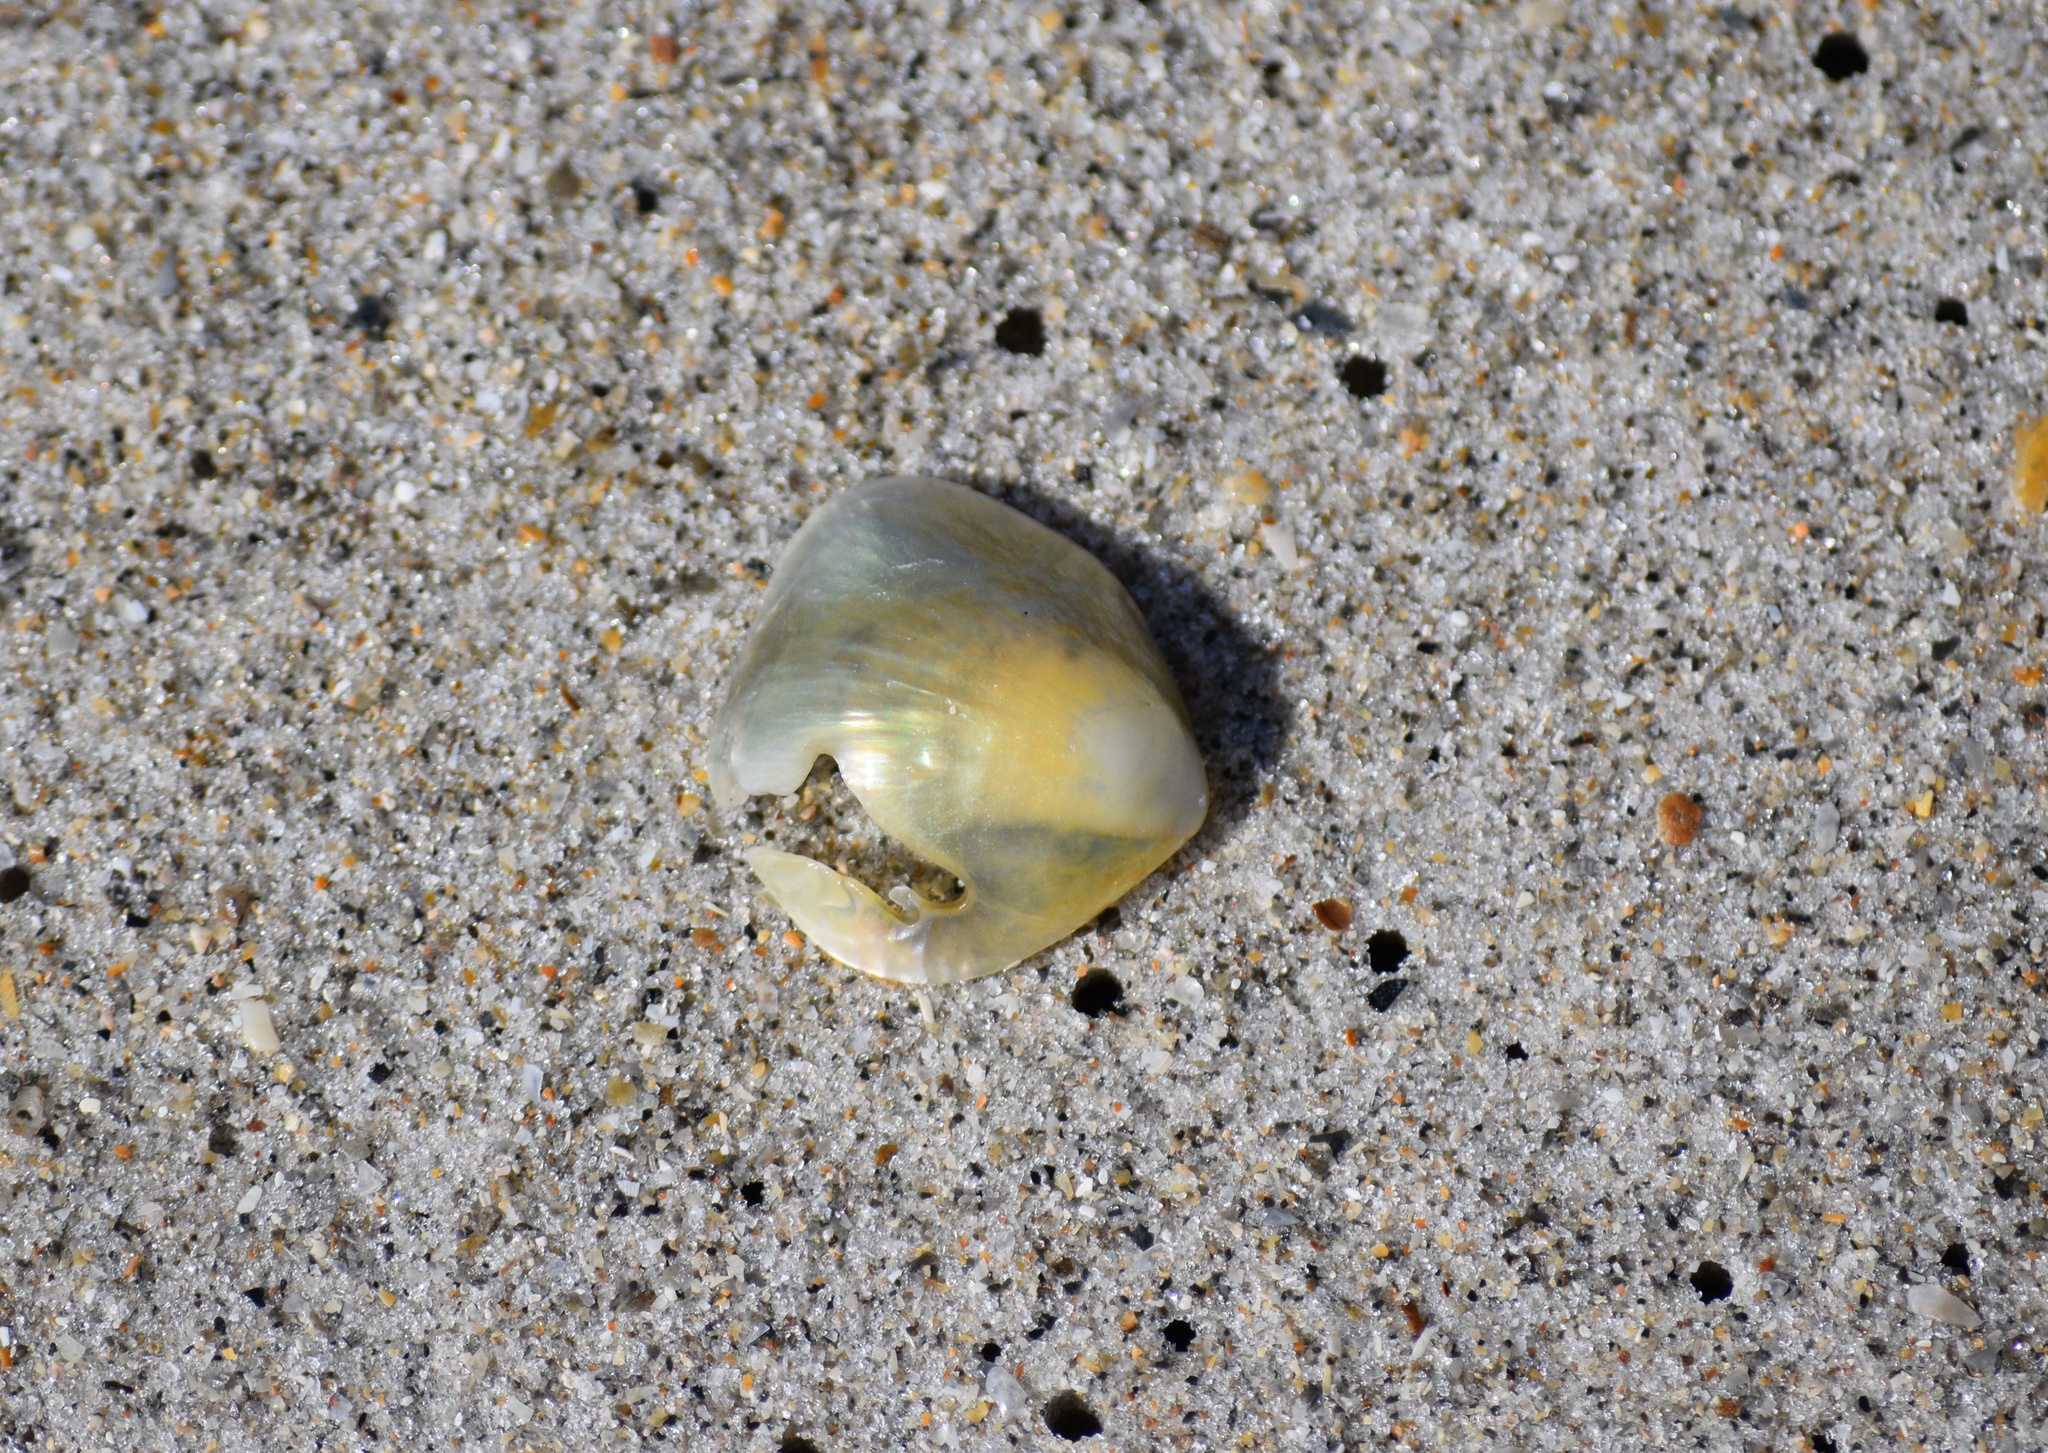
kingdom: Animalia
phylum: Mollusca
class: Bivalvia
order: Pectinida
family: Anomiidae
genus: Anomia
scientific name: Anomia simplex
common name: Common jingle shell
